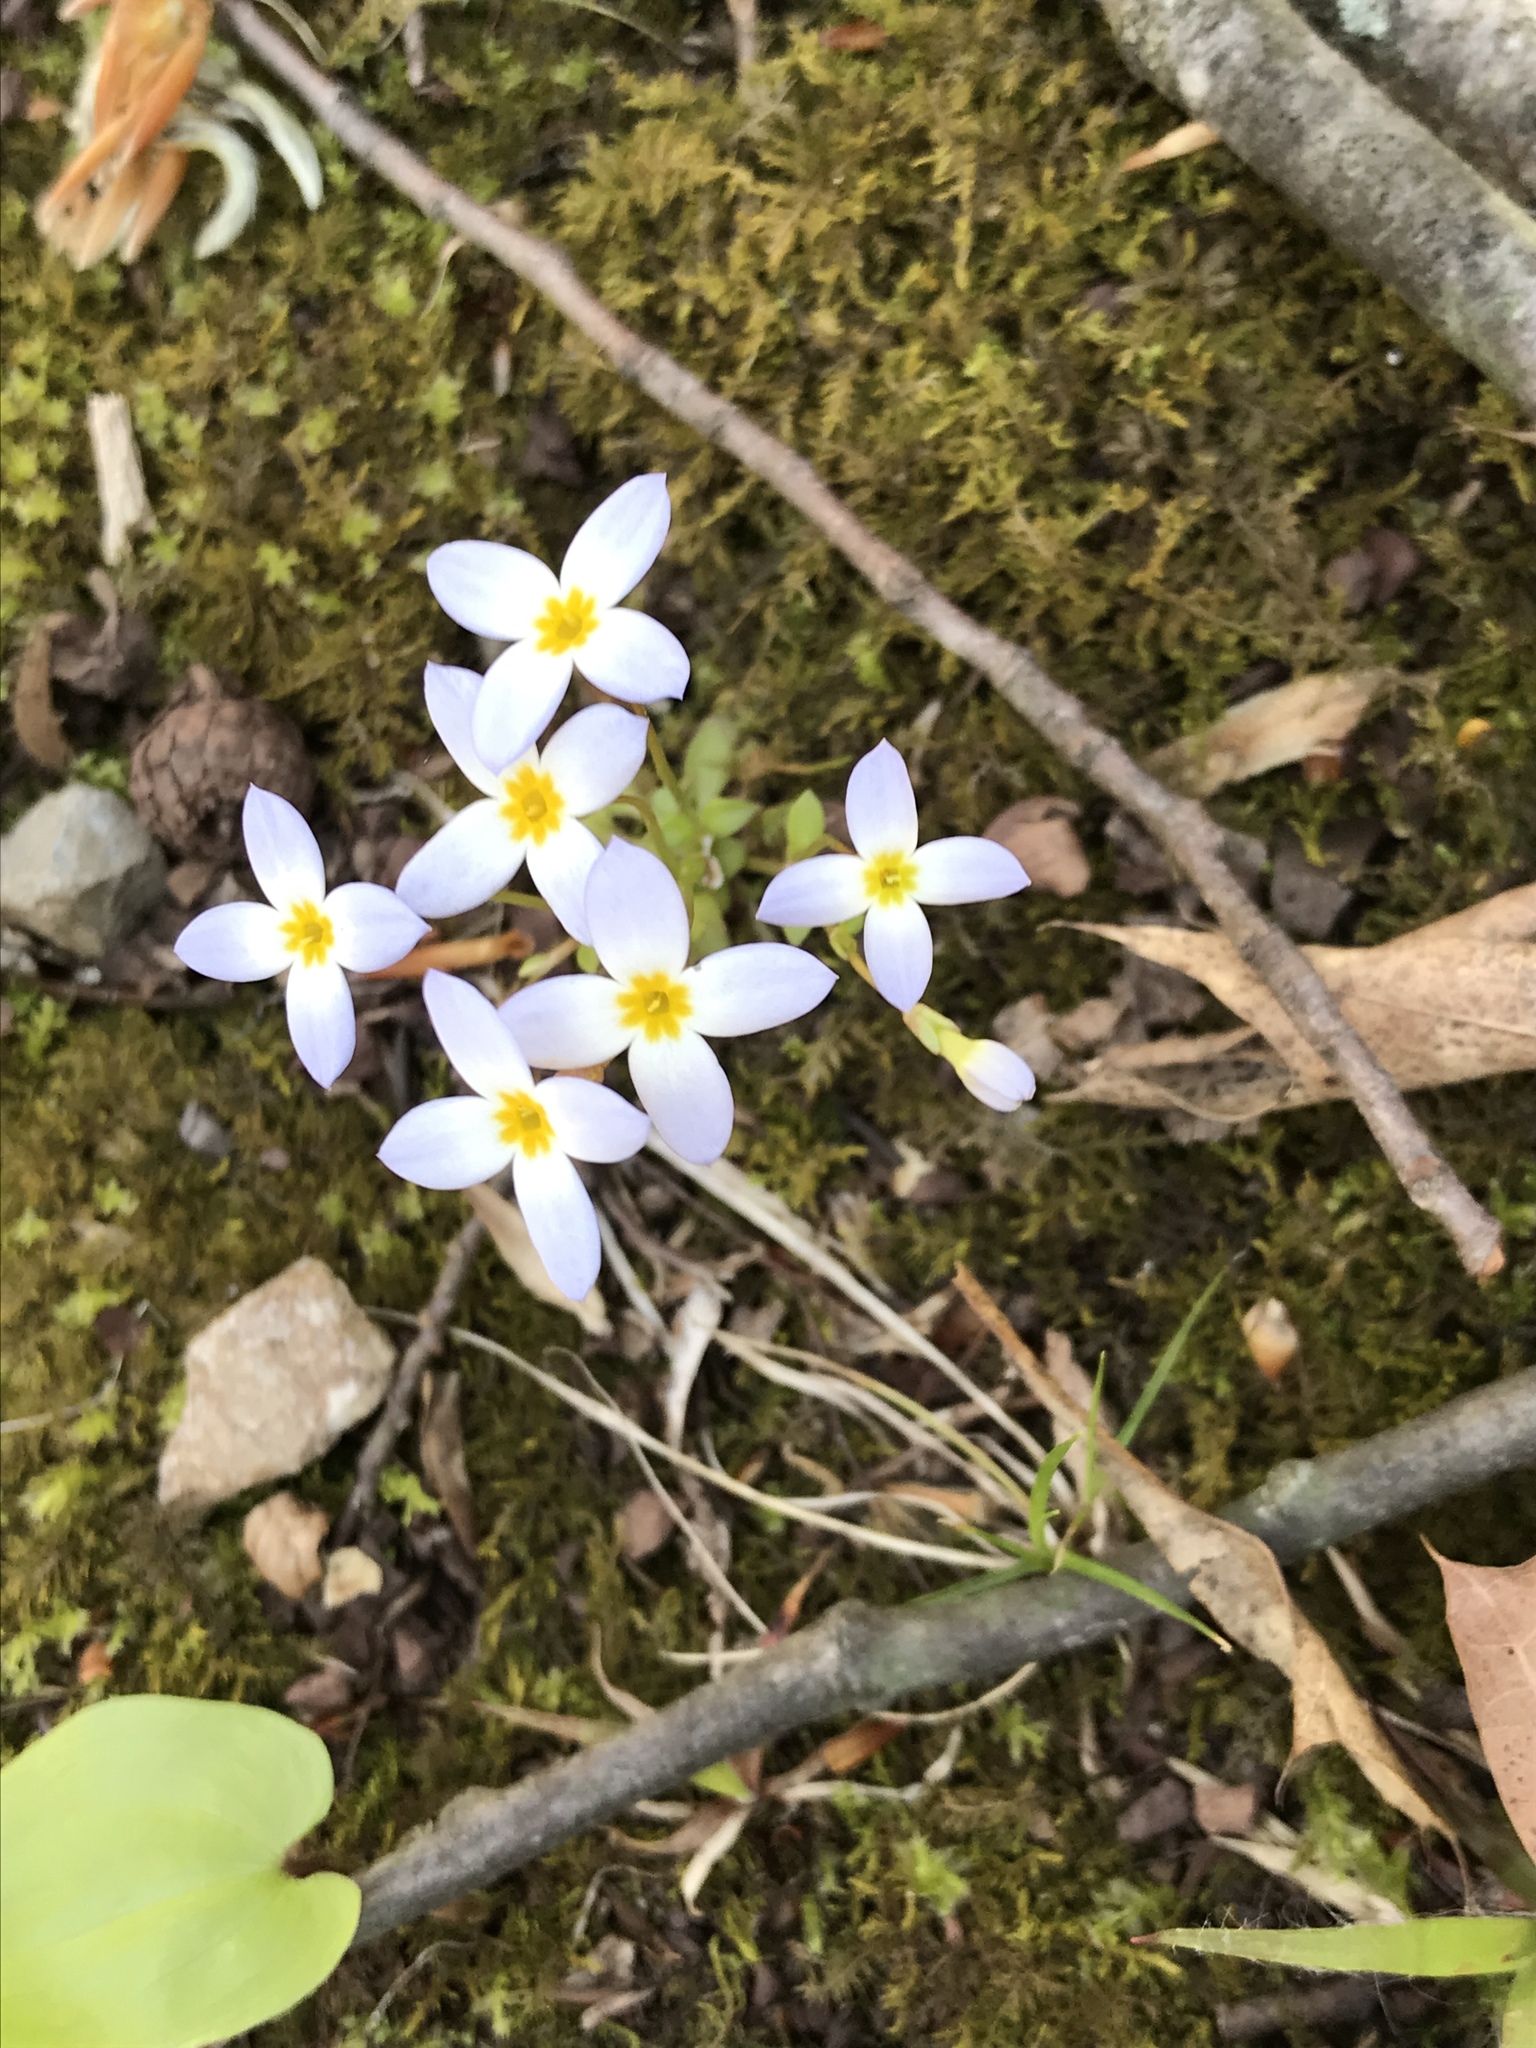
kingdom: Plantae
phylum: Tracheophyta
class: Magnoliopsida
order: Gentianales
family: Rubiaceae
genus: Houstonia
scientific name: Houstonia caerulea
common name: Bluets
